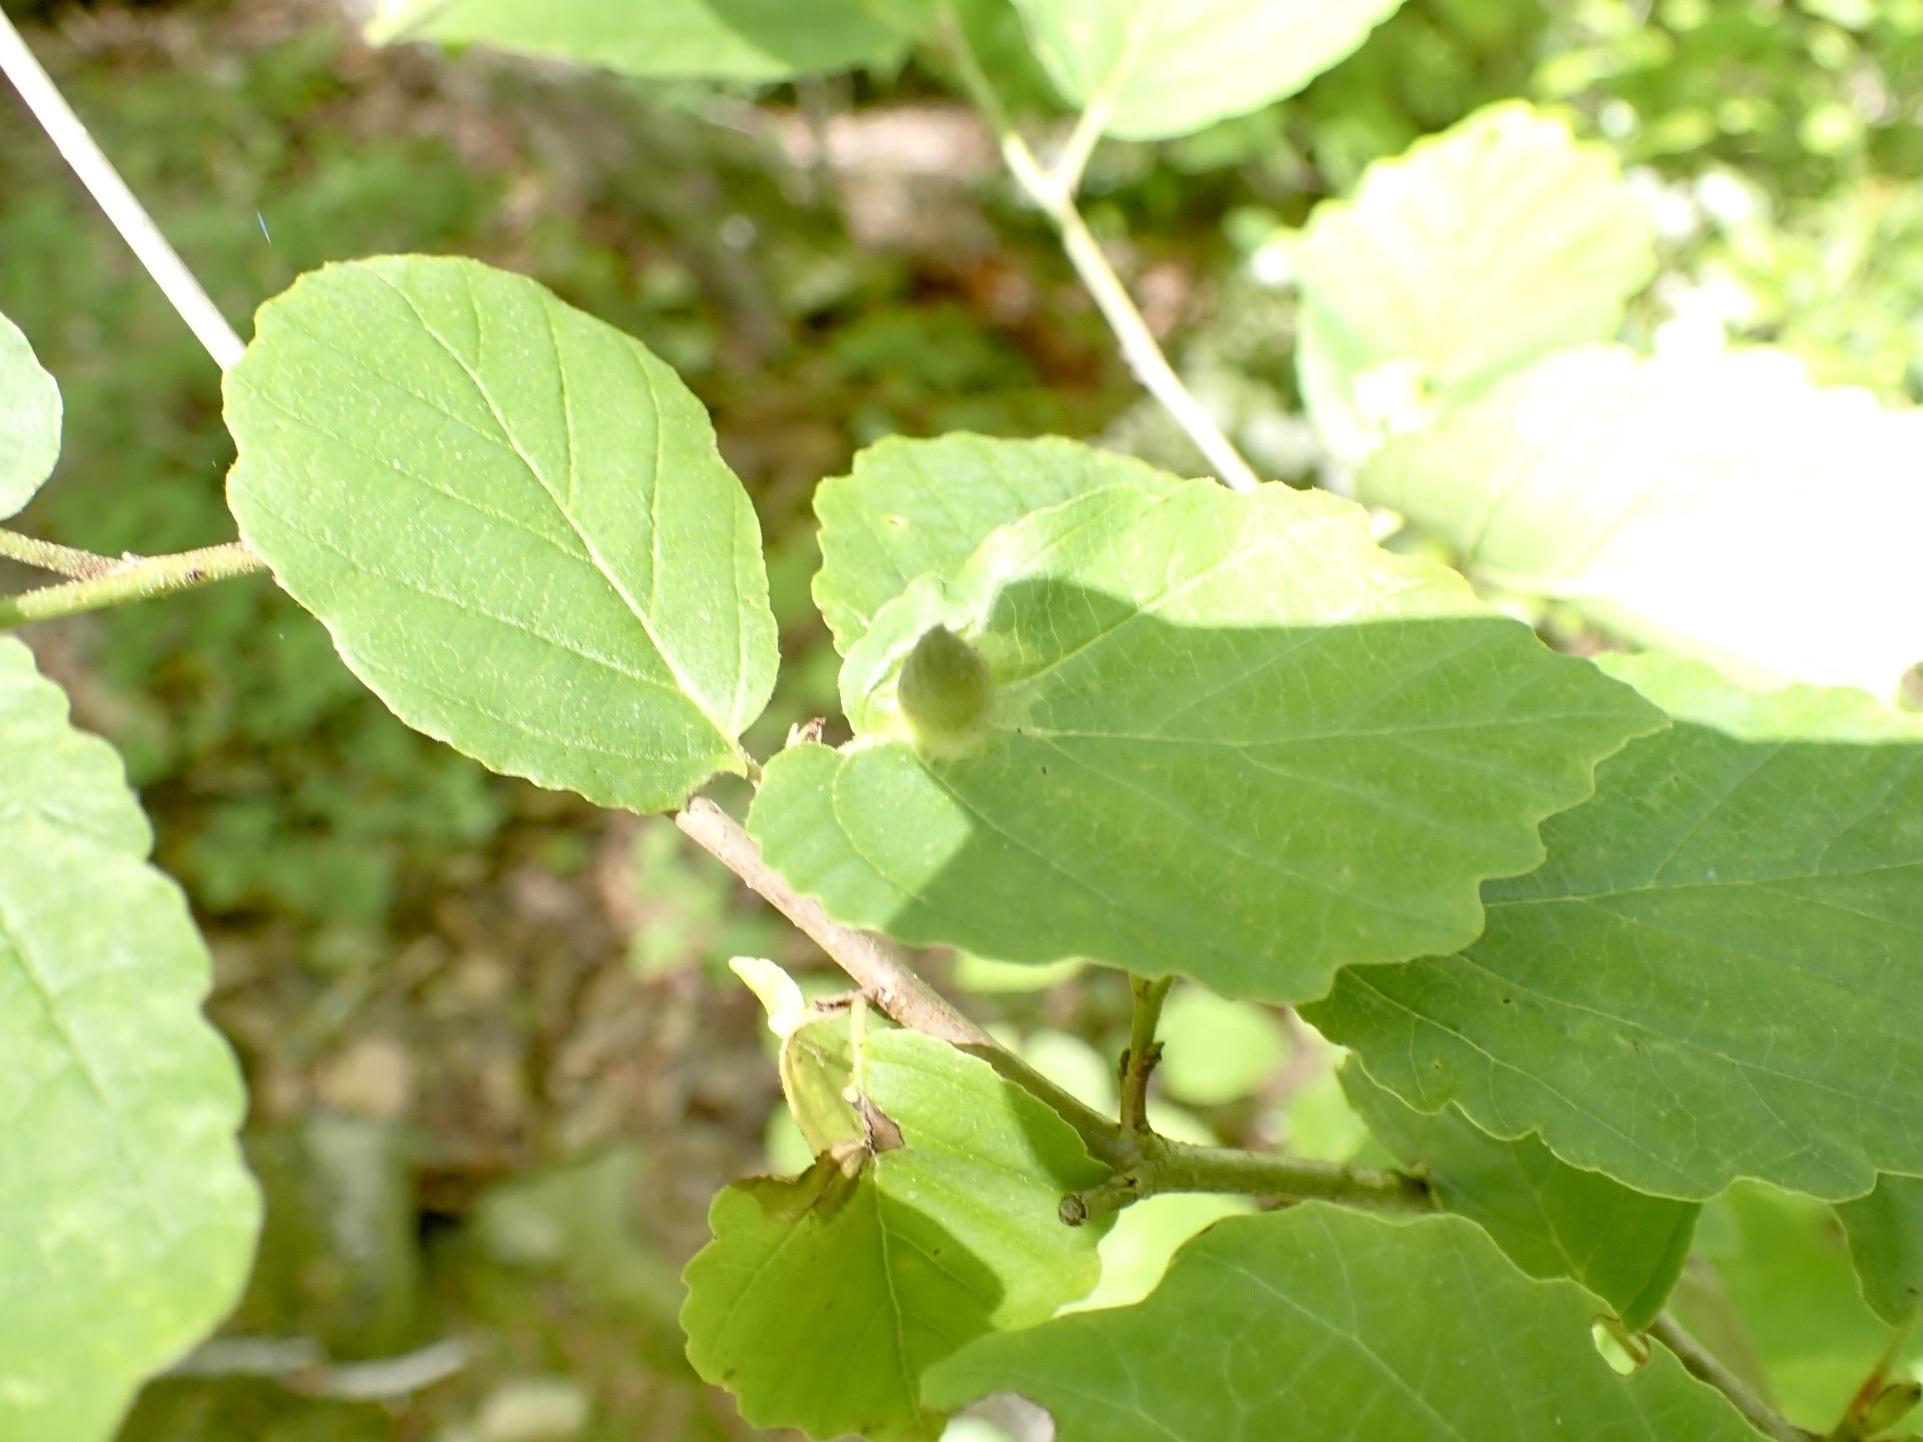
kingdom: Animalia
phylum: Arthropoda
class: Insecta
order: Hemiptera
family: Aphididae
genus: Hormaphis
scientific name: Hormaphis hamamelidis
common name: Witch-hazel cone gall aphid
